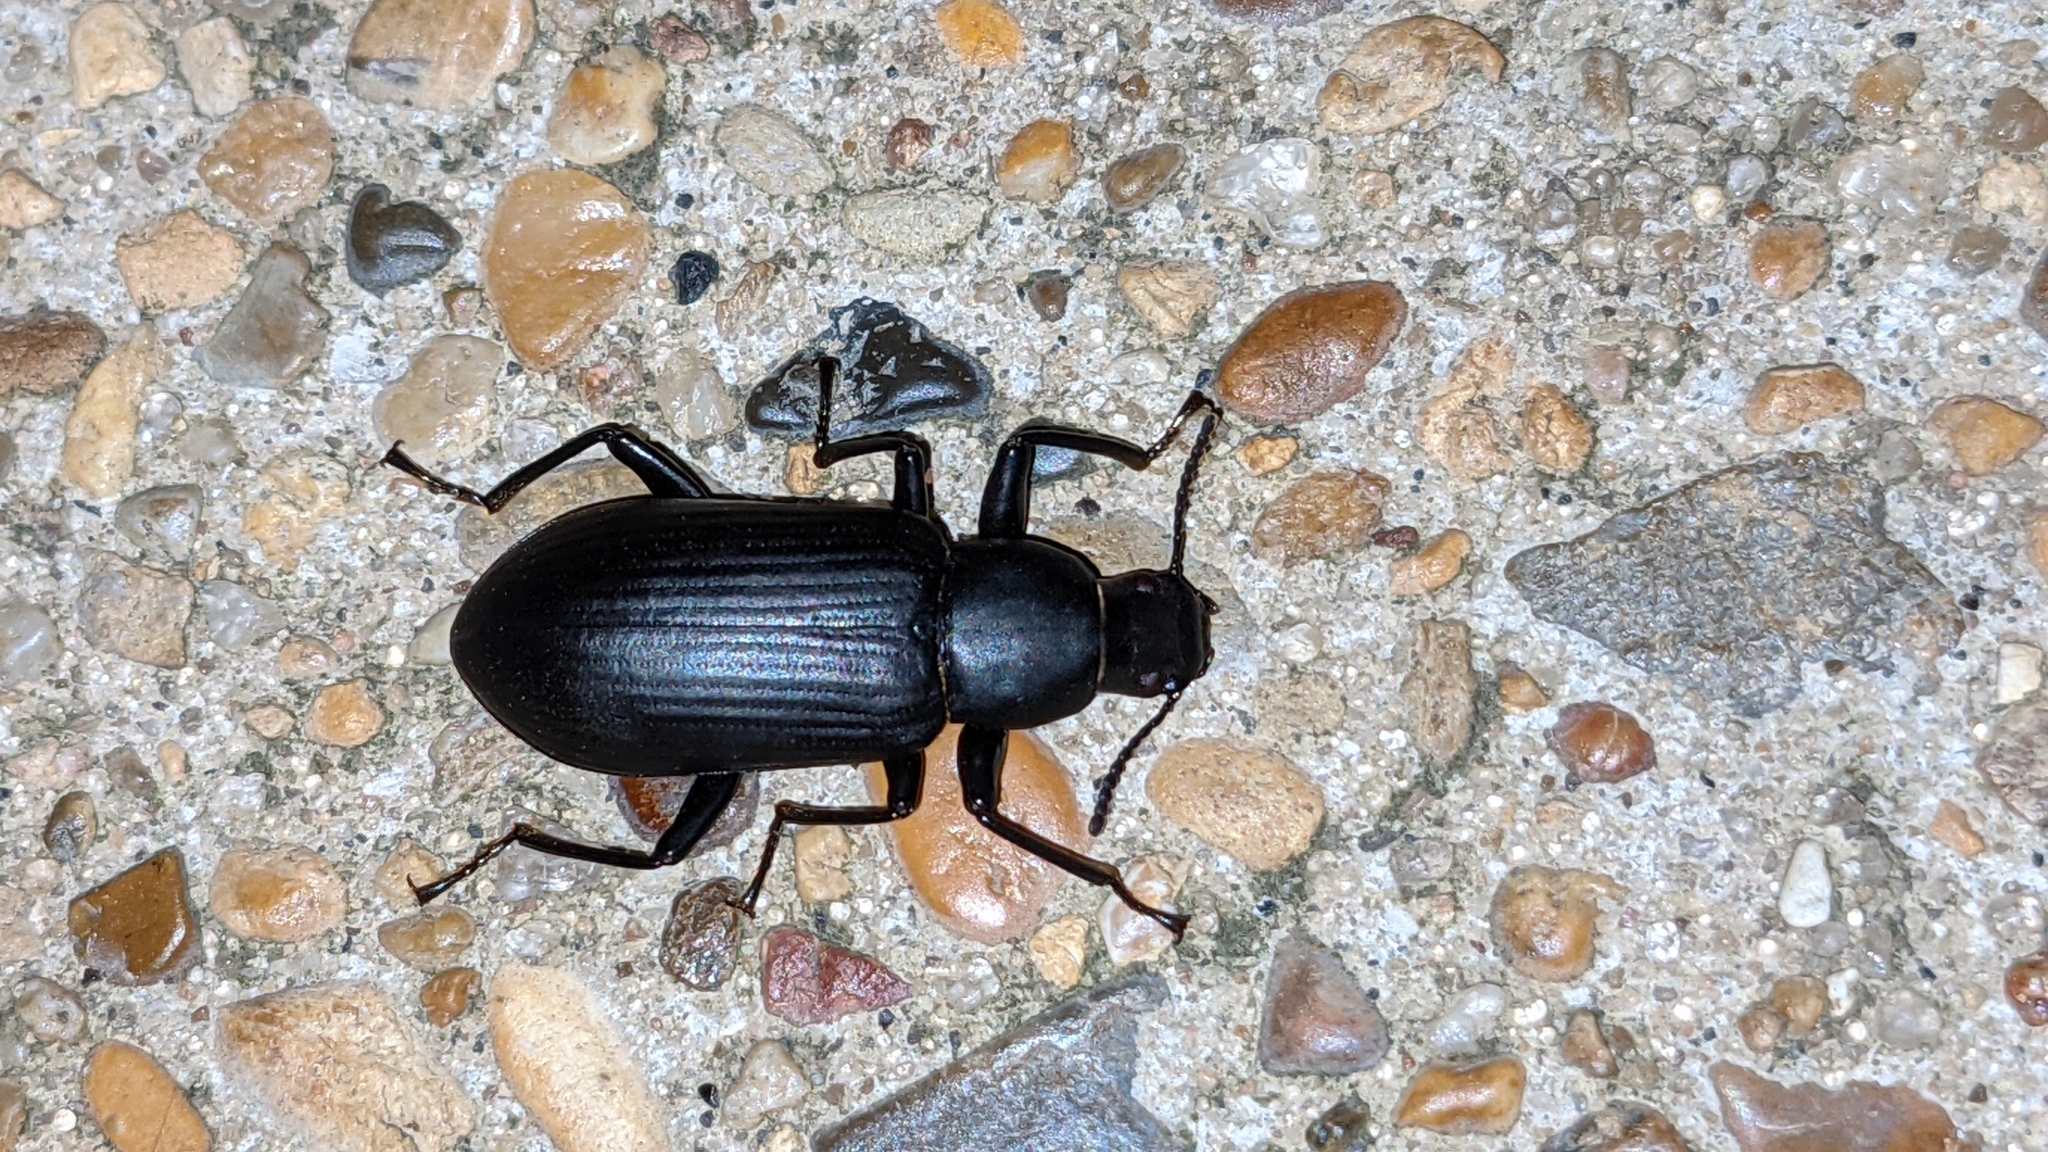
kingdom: Animalia
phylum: Arthropoda
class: Insecta
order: Coleoptera
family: Tenebrionidae
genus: Alobates
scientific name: Alobates pensylvanicus
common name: False mealworm beetle
